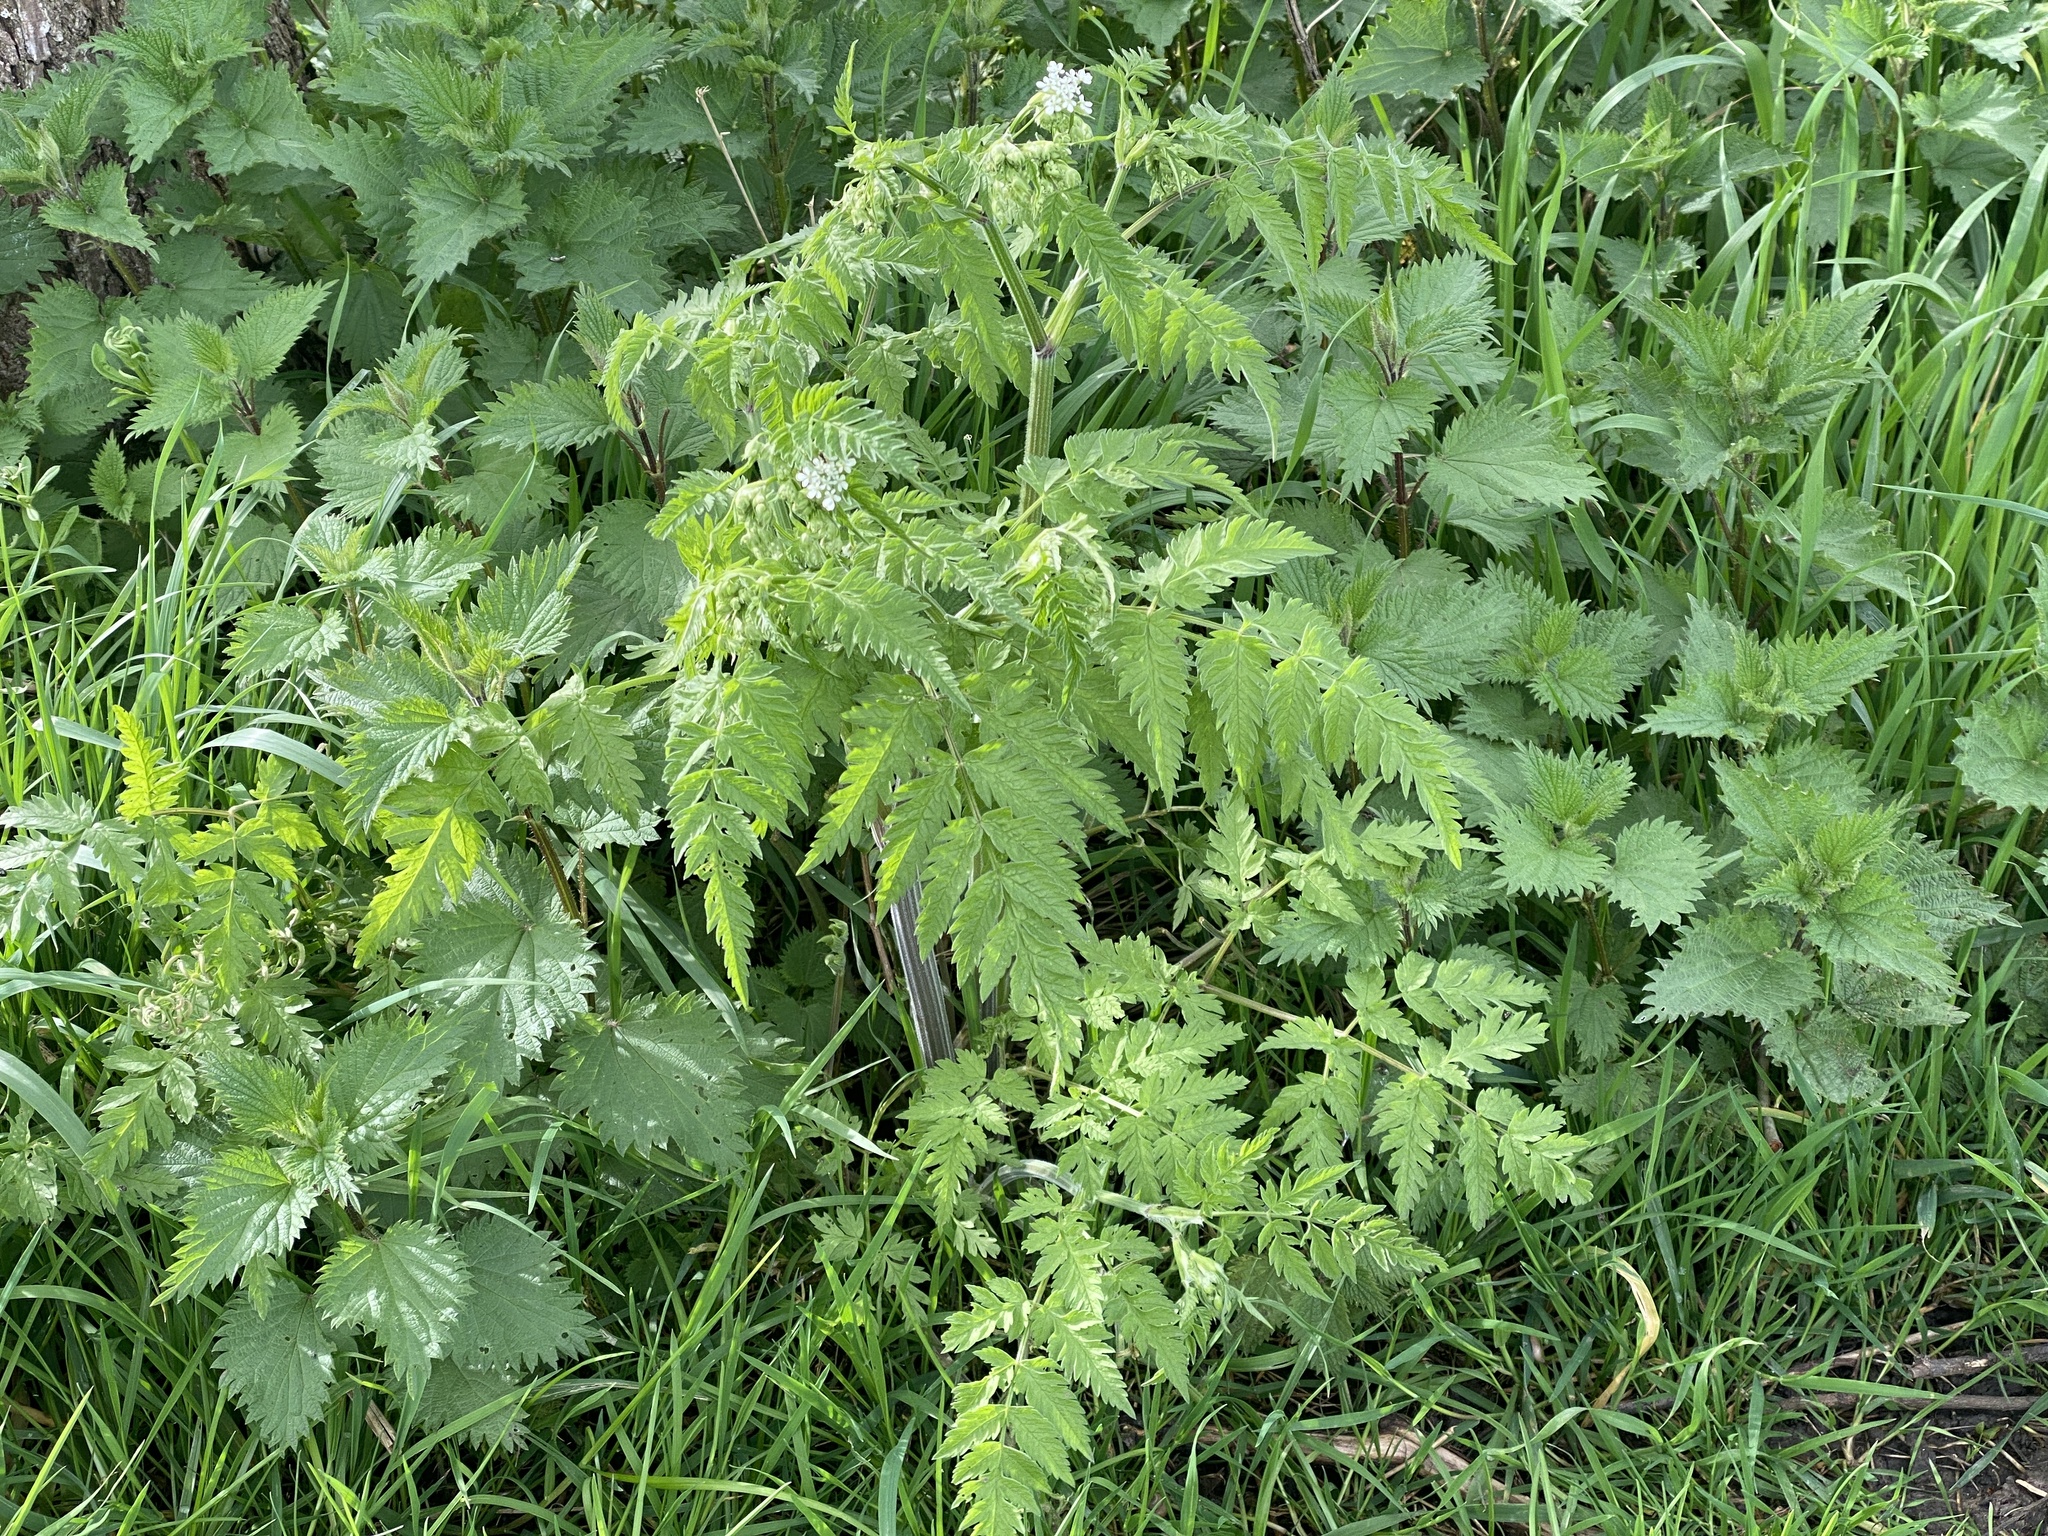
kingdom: Plantae
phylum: Tracheophyta
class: Magnoliopsida
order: Apiales
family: Apiaceae
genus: Anthriscus
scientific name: Anthriscus sylvestris
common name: Cow parsley
